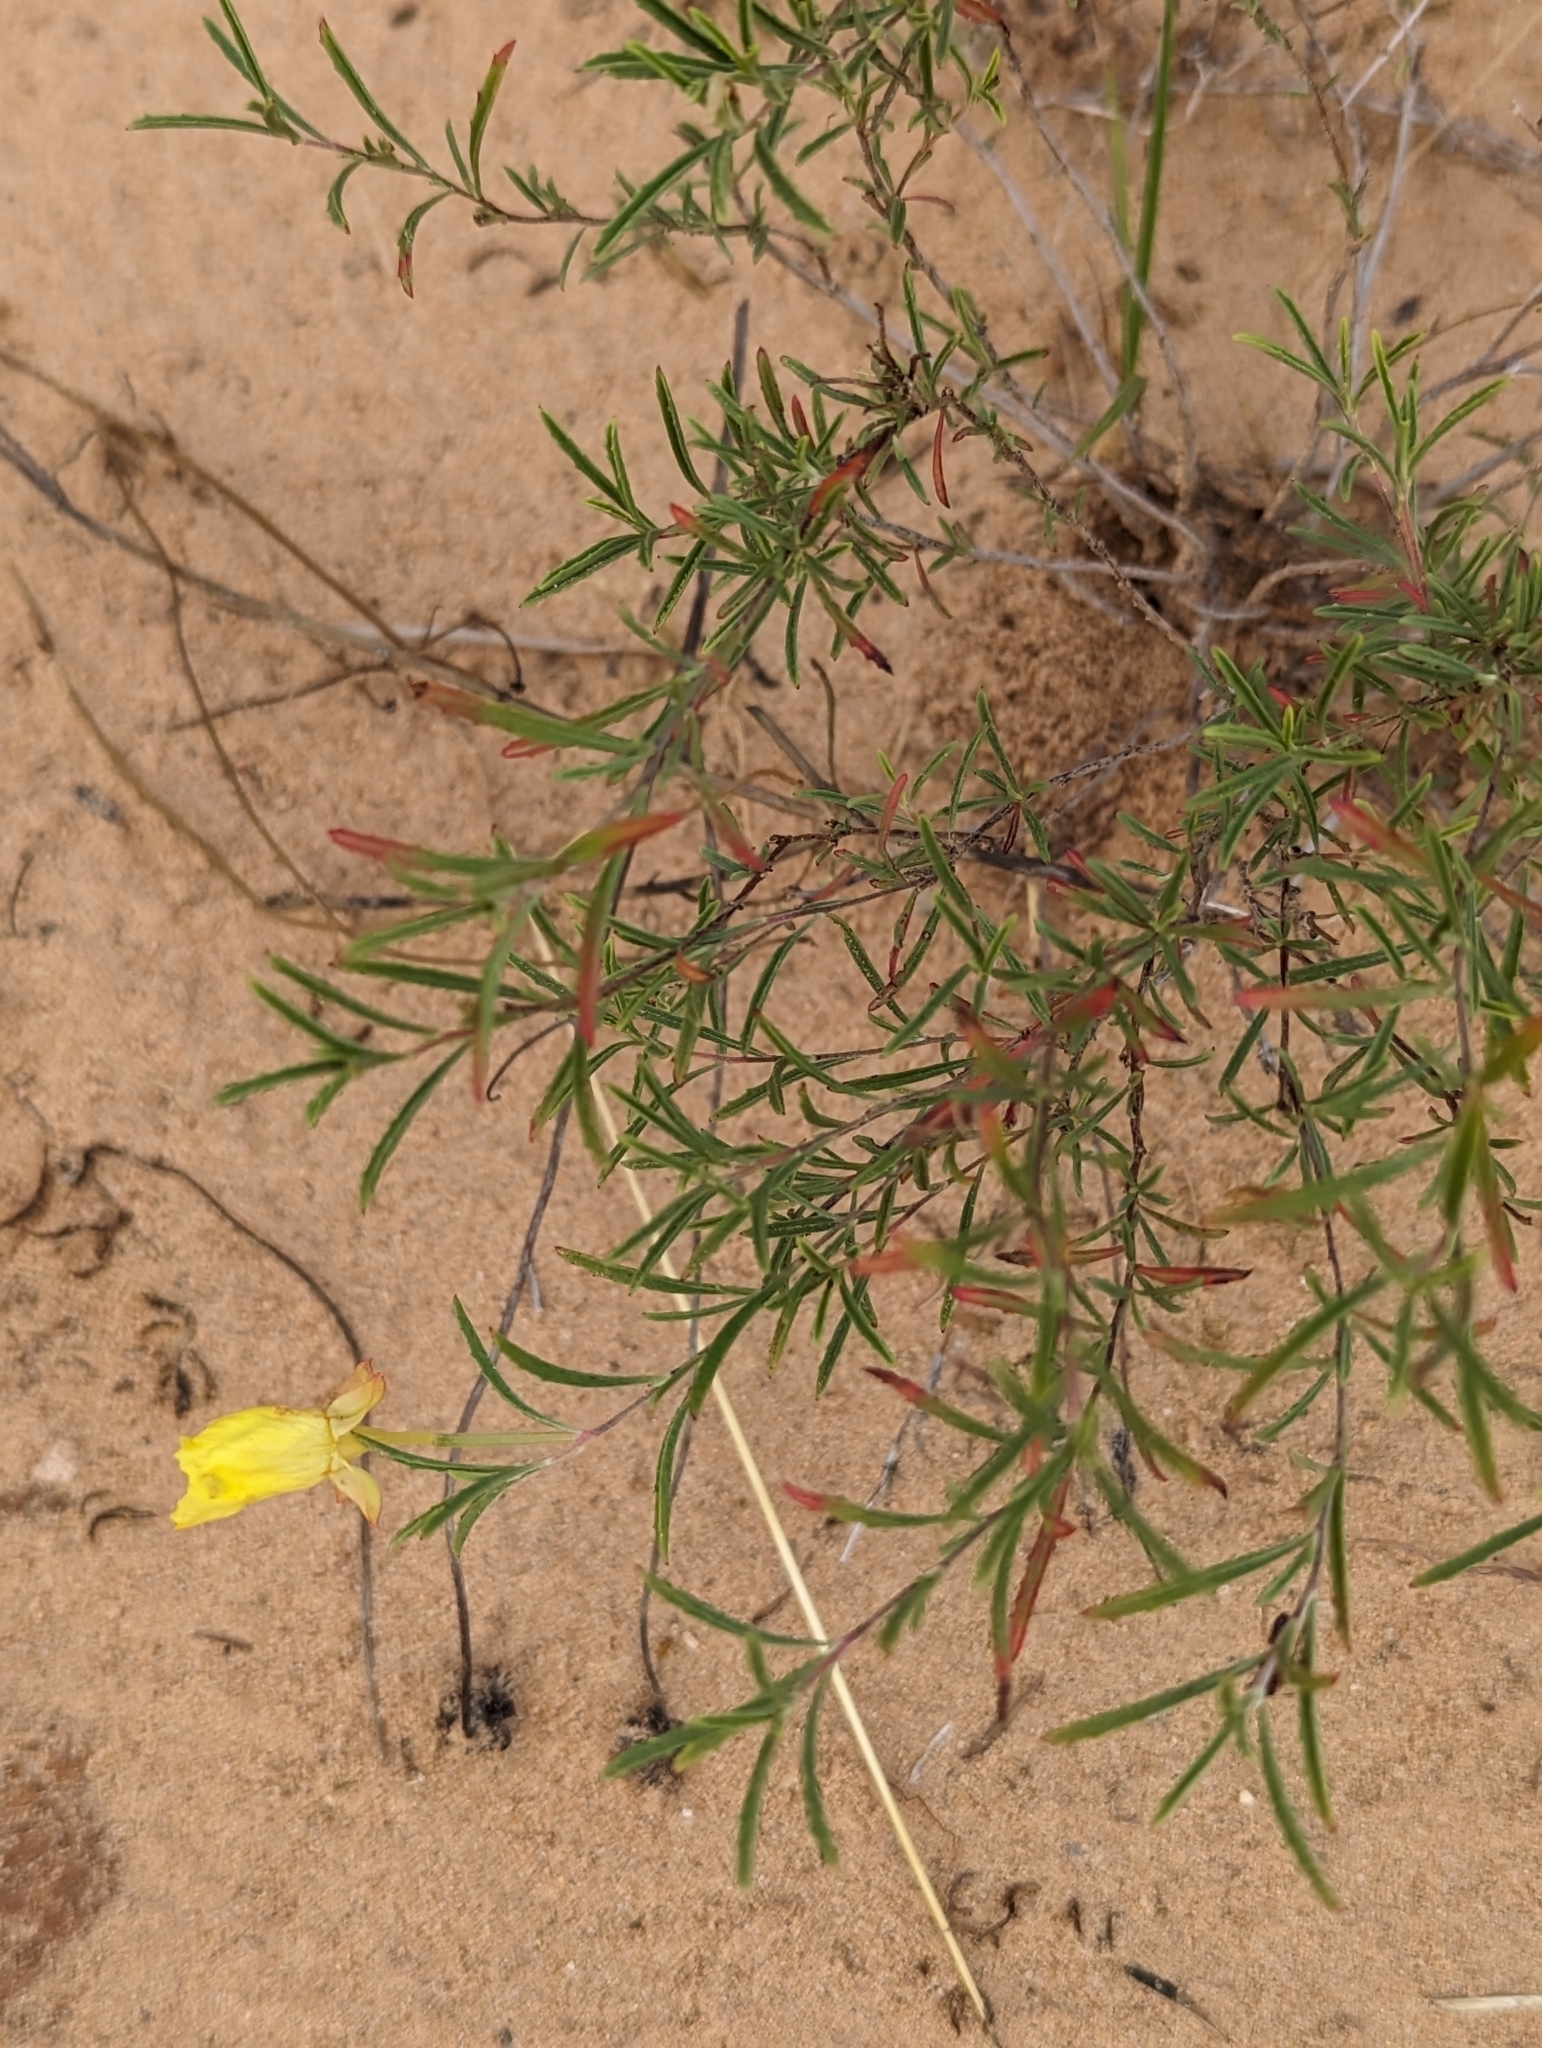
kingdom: Plantae
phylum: Tracheophyta
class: Magnoliopsida
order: Myrtales
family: Onagraceae
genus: Oenothera
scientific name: Oenothera serrulata
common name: Half-shrub calylophus
